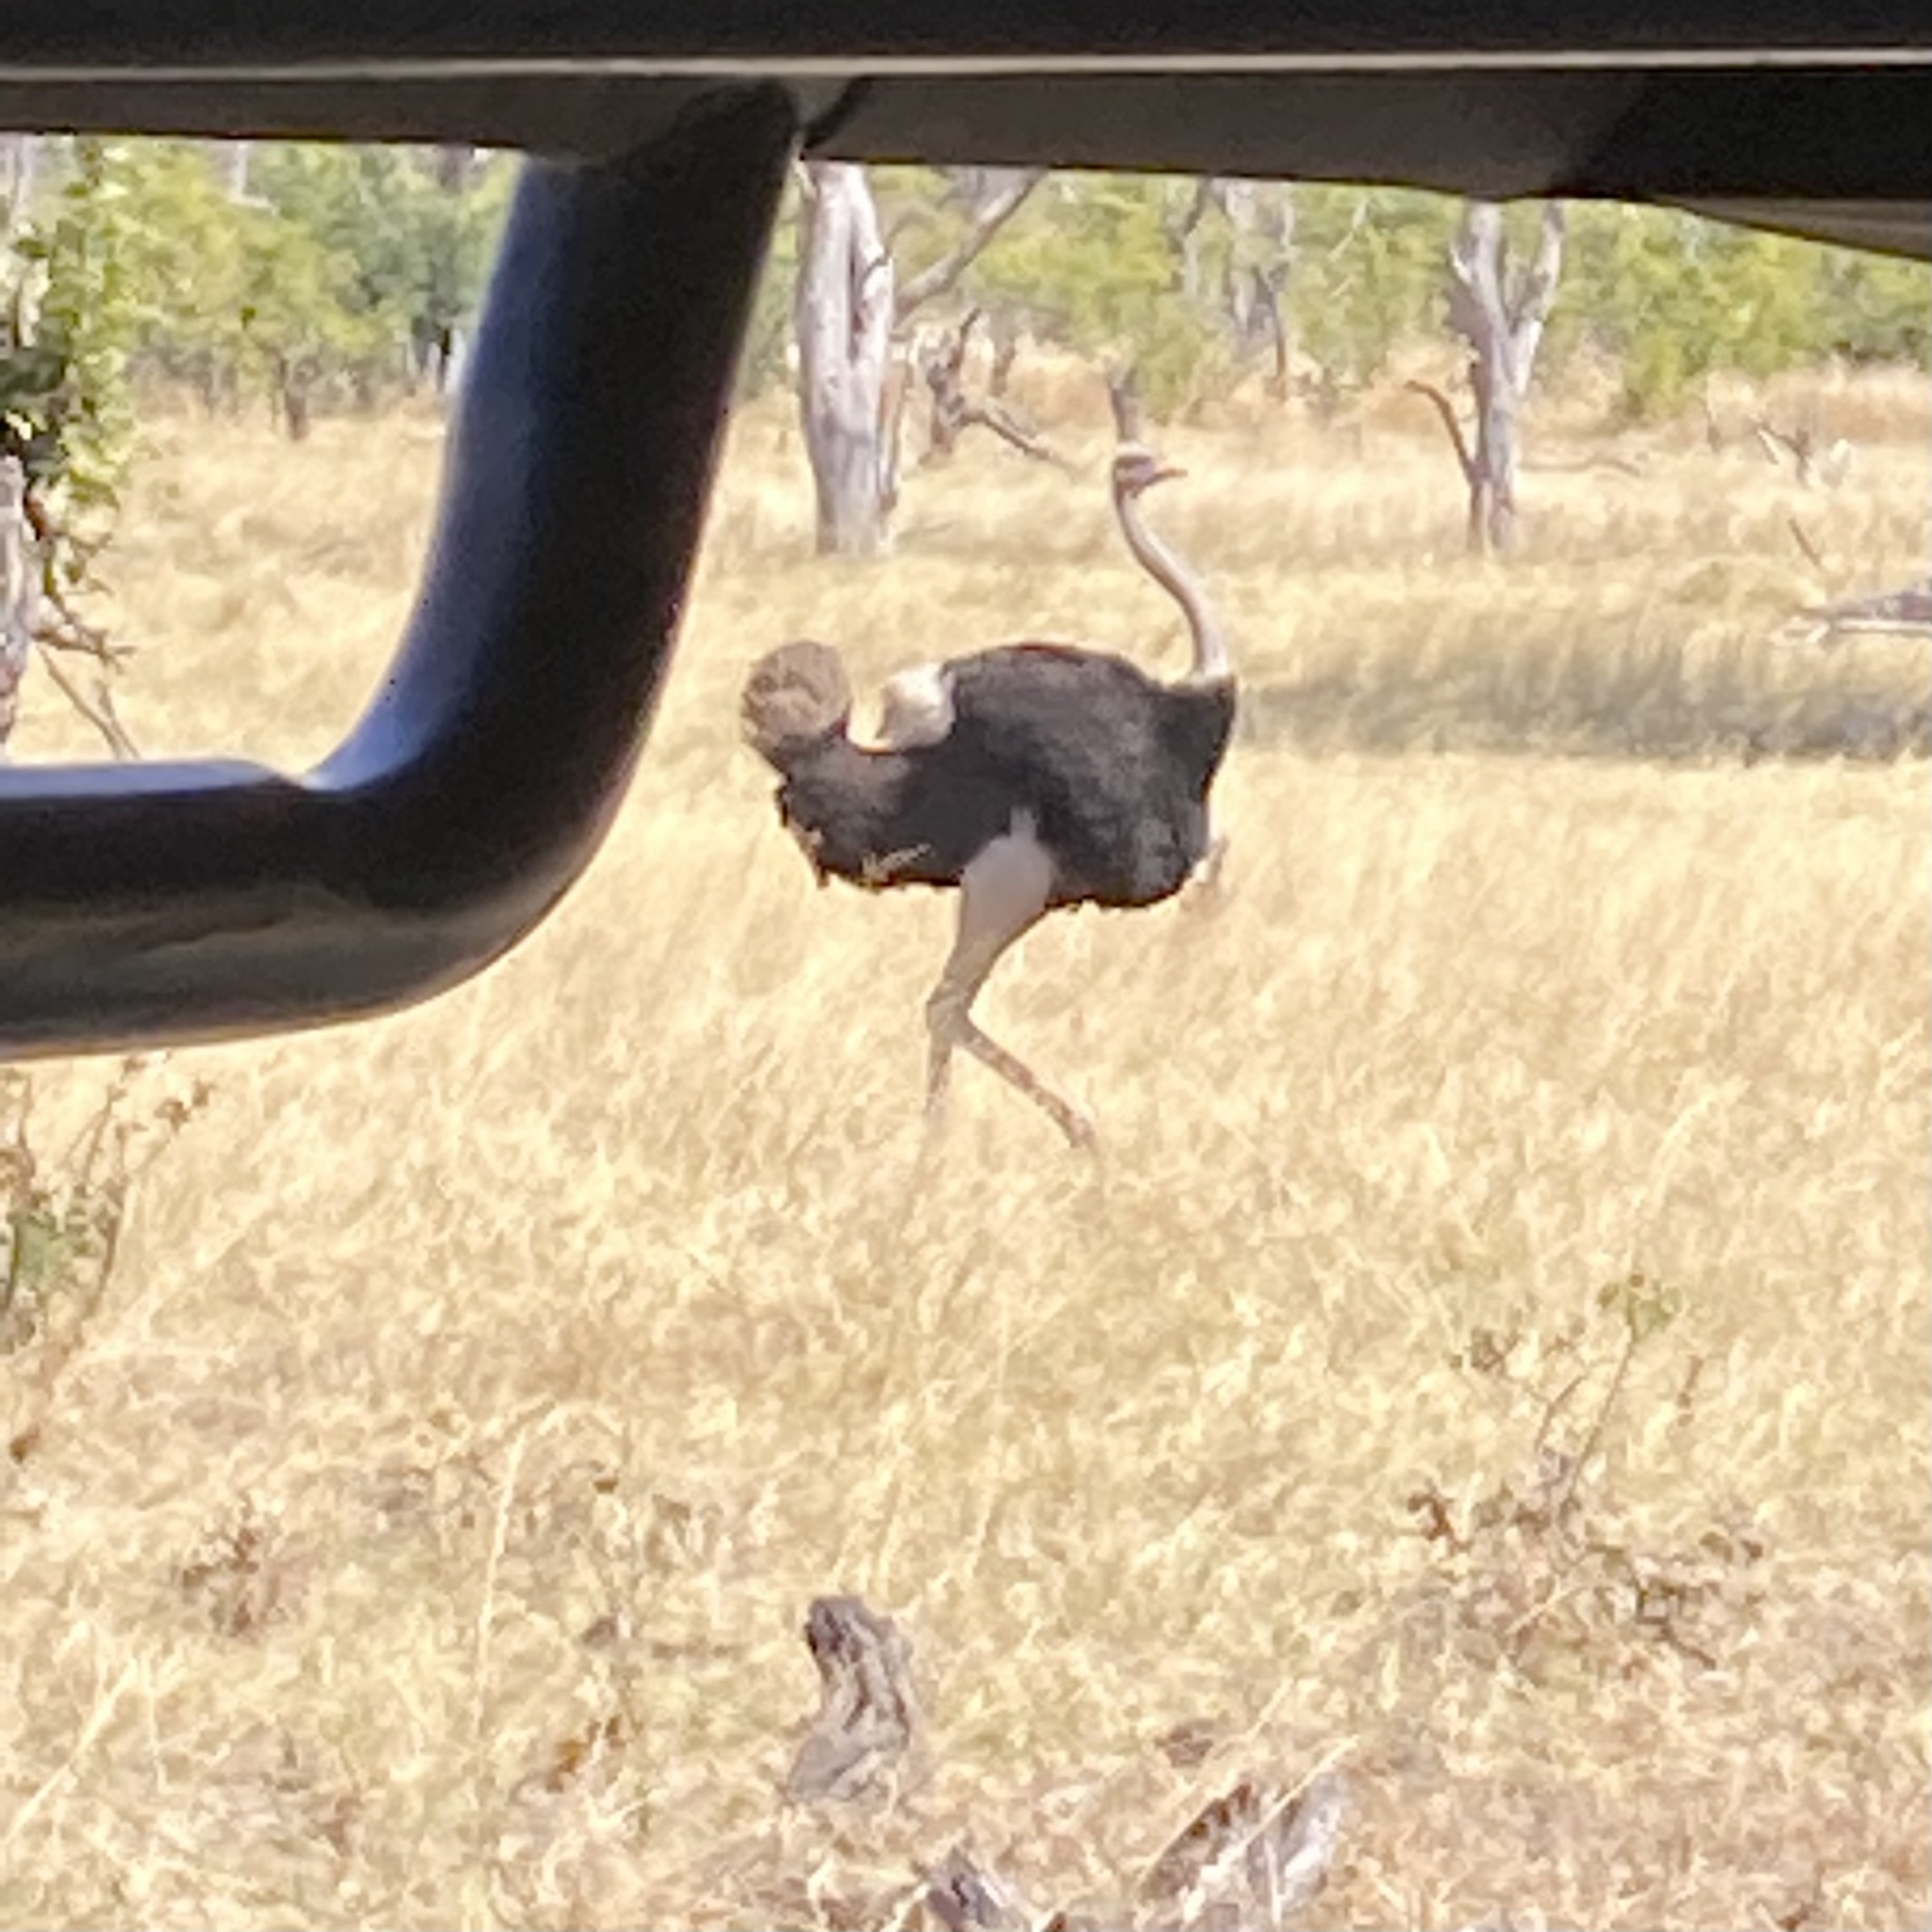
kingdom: Animalia
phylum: Chordata
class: Aves
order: Struthioniformes
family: Struthionidae
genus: Struthio
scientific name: Struthio camelus
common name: Common ostrich
